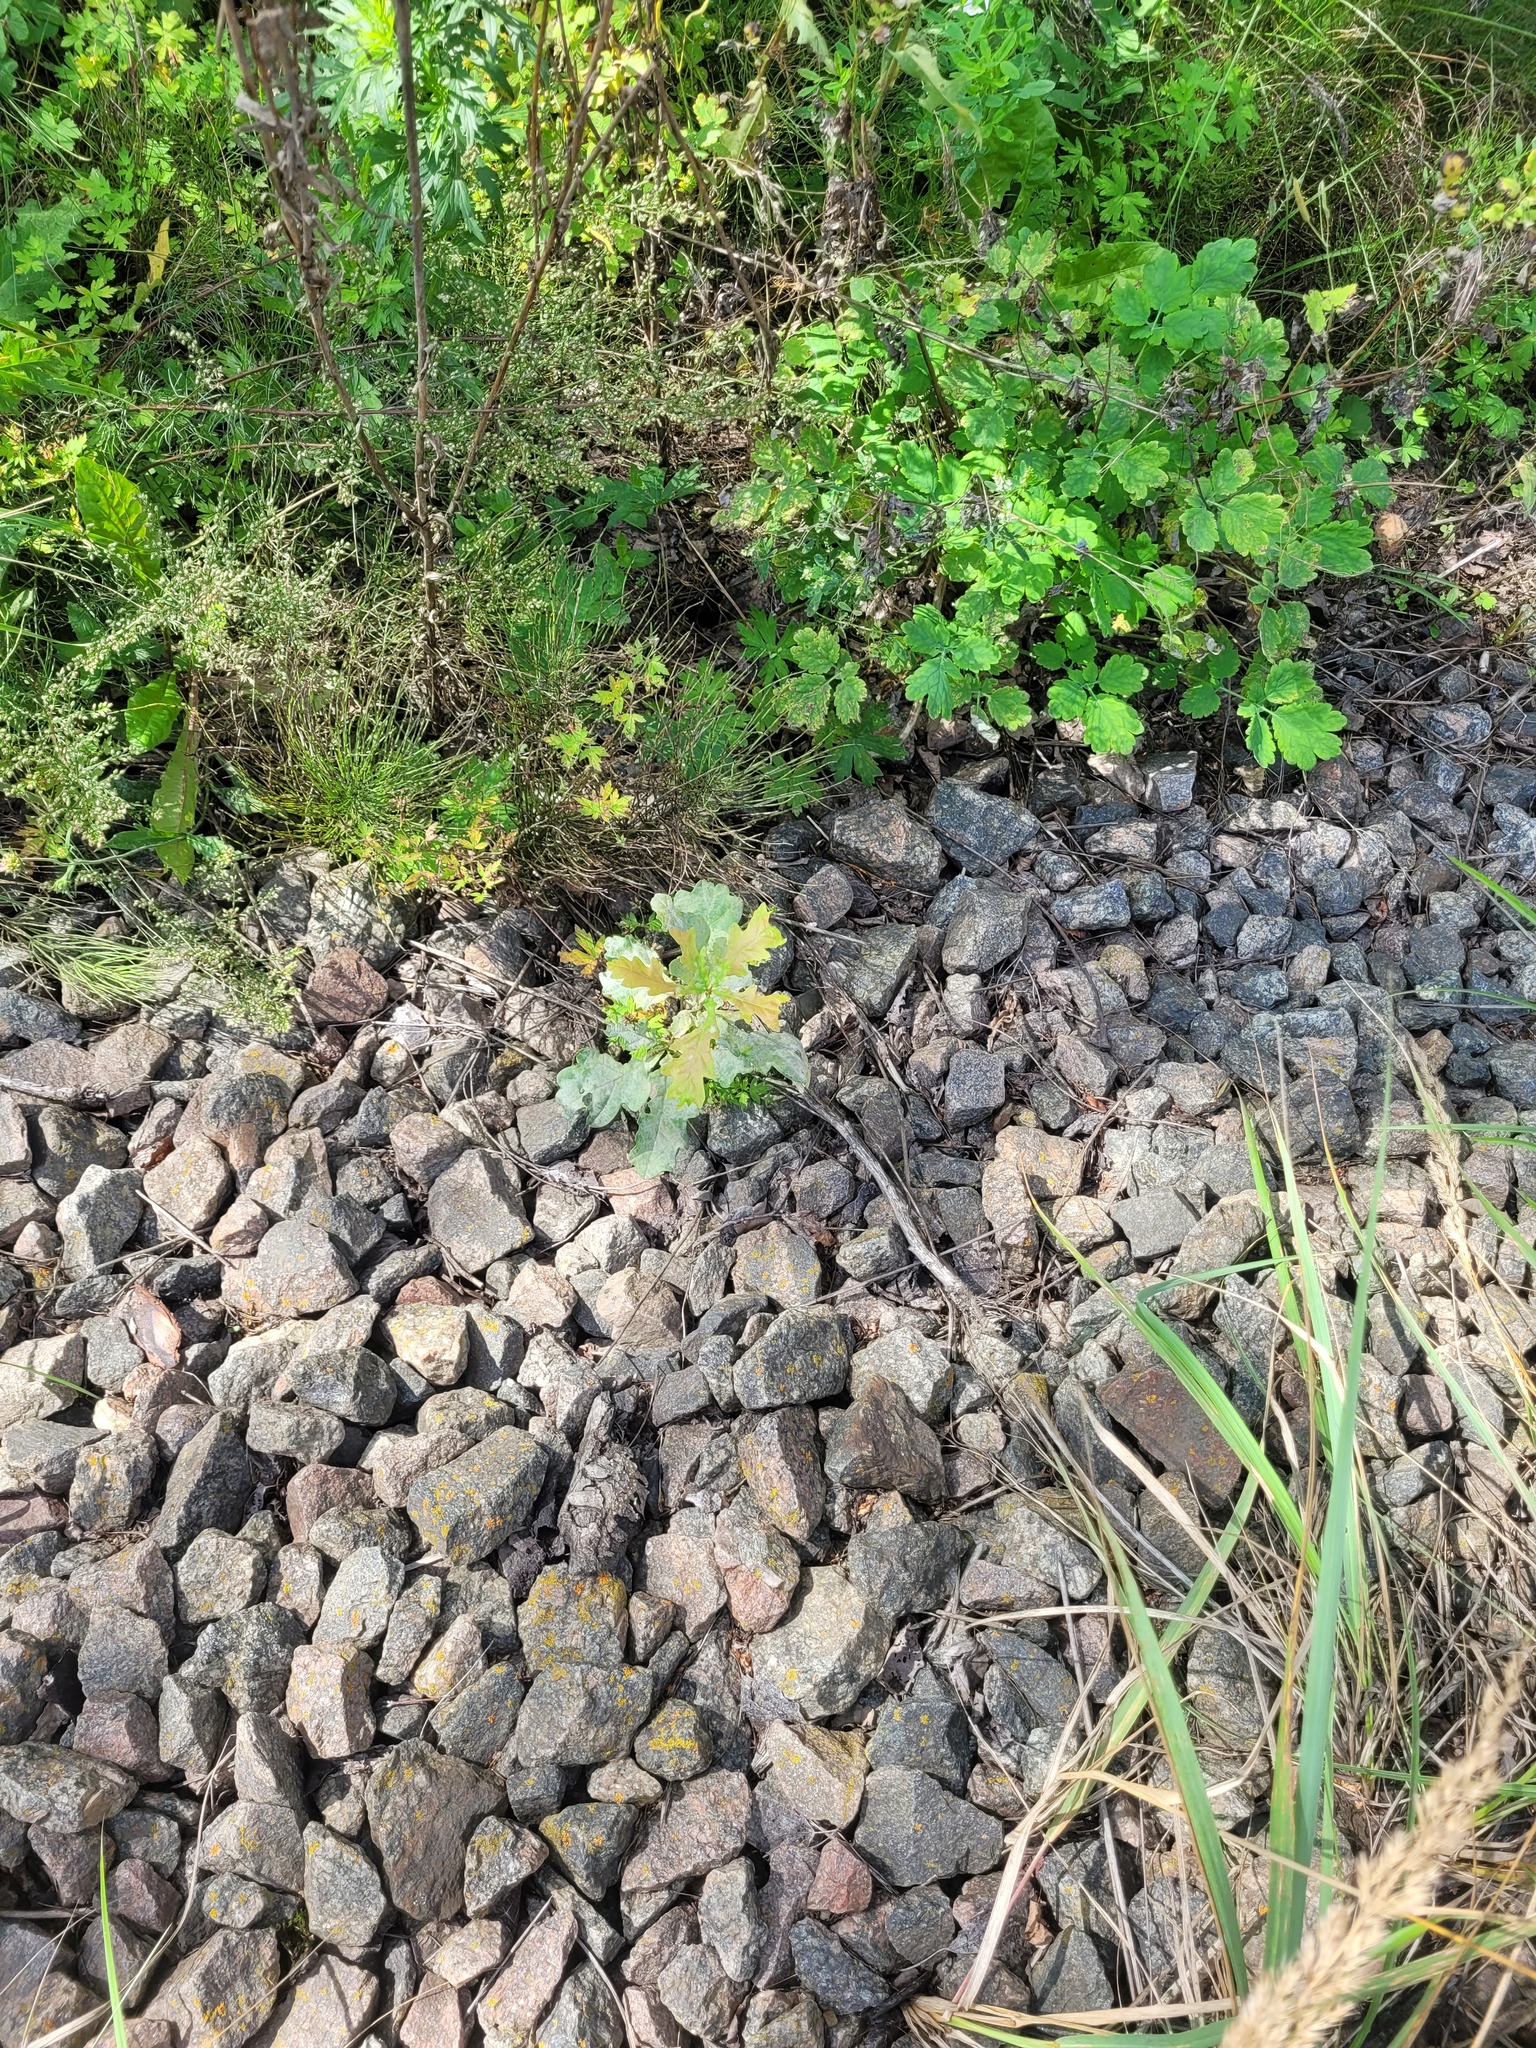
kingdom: Plantae
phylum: Tracheophyta
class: Magnoliopsida
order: Fagales
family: Fagaceae
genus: Quercus
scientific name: Quercus robur
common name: Pedunculate oak
